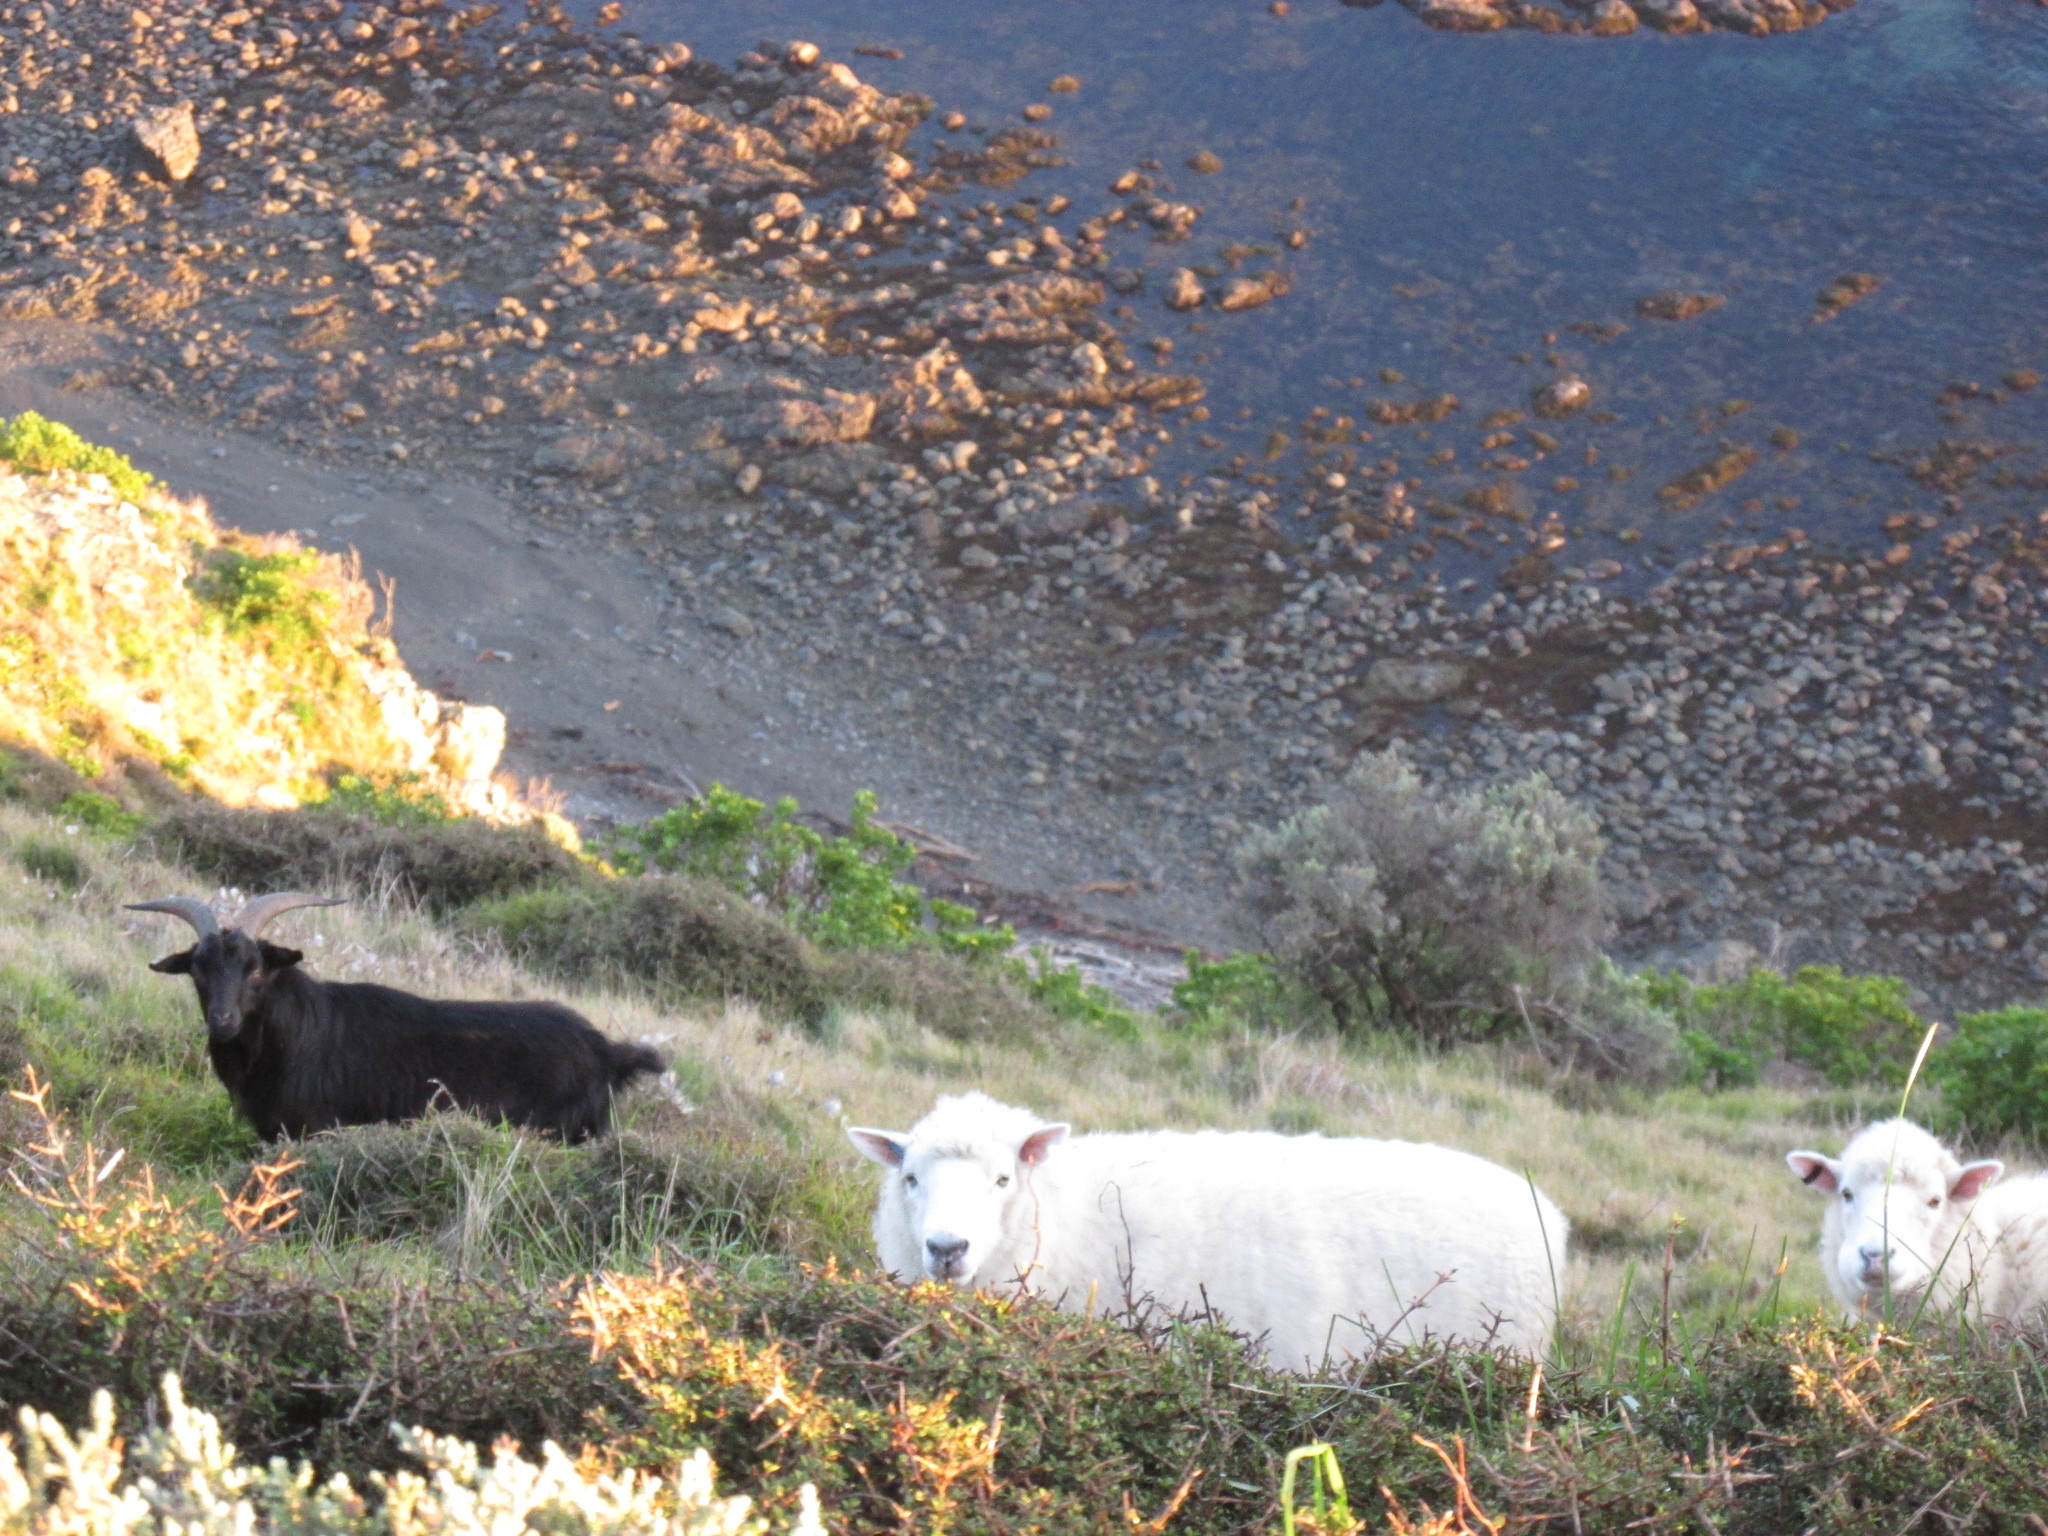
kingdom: Animalia
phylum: Chordata
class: Mammalia
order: Artiodactyla
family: Bovidae
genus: Capra
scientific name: Capra hircus
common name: Domestic goat
